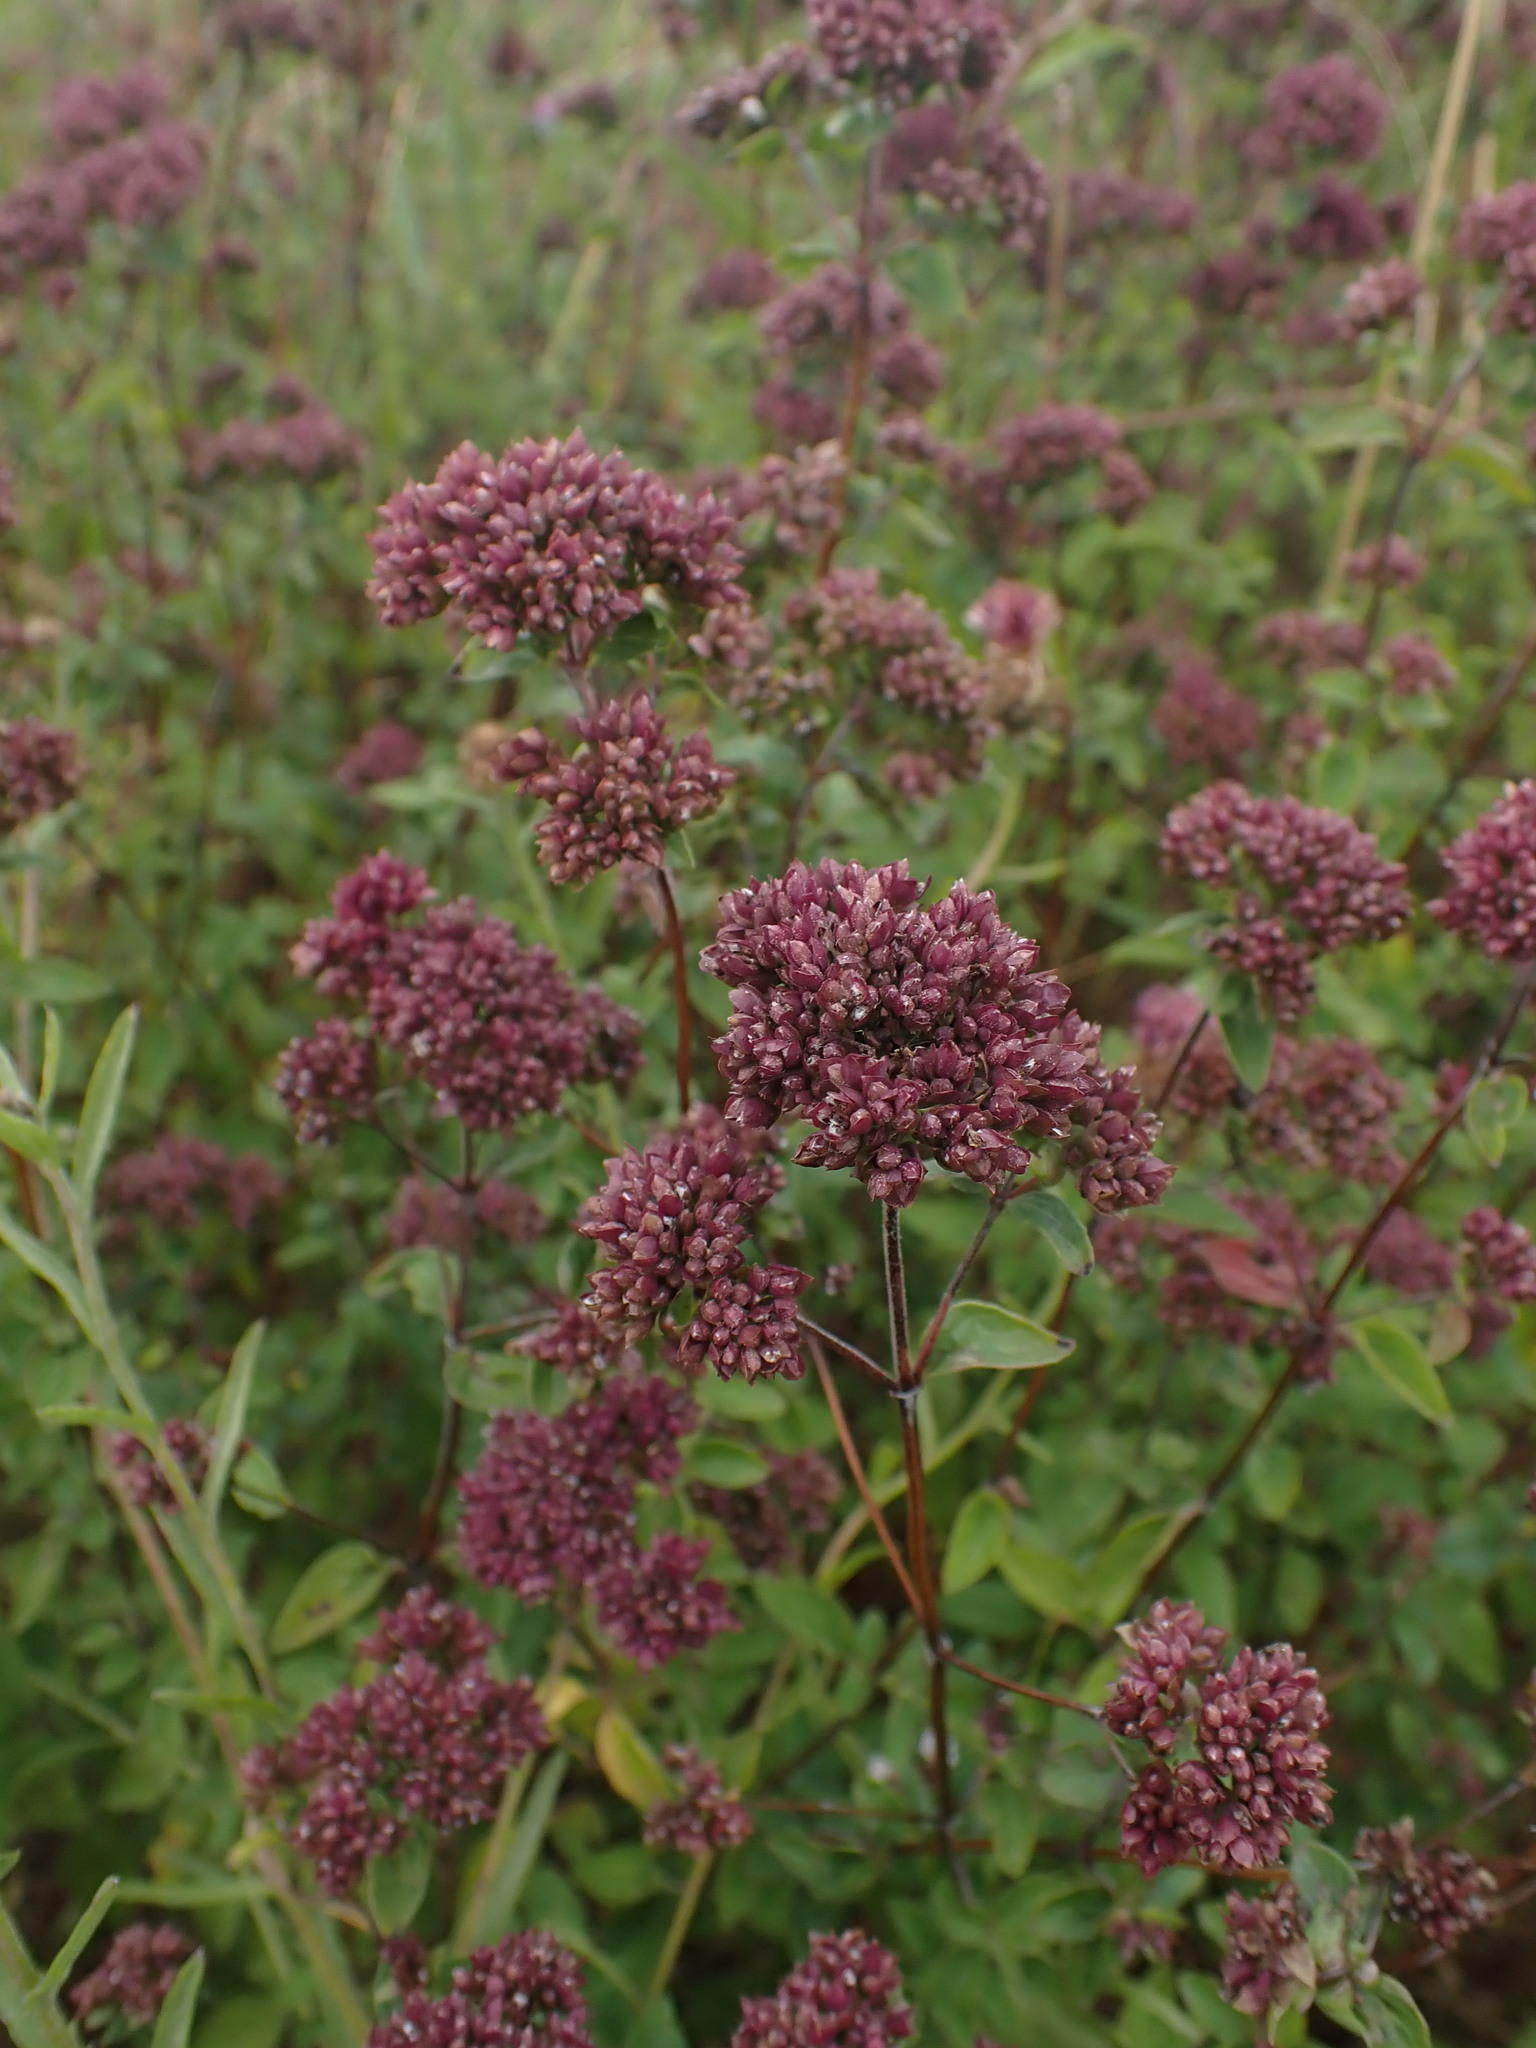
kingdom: Plantae
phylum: Tracheophyta
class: Magnoliopsida
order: Lamiales
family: Lamiaceae
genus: Origanum
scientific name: Origanum vulgare
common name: Wild marjoram
